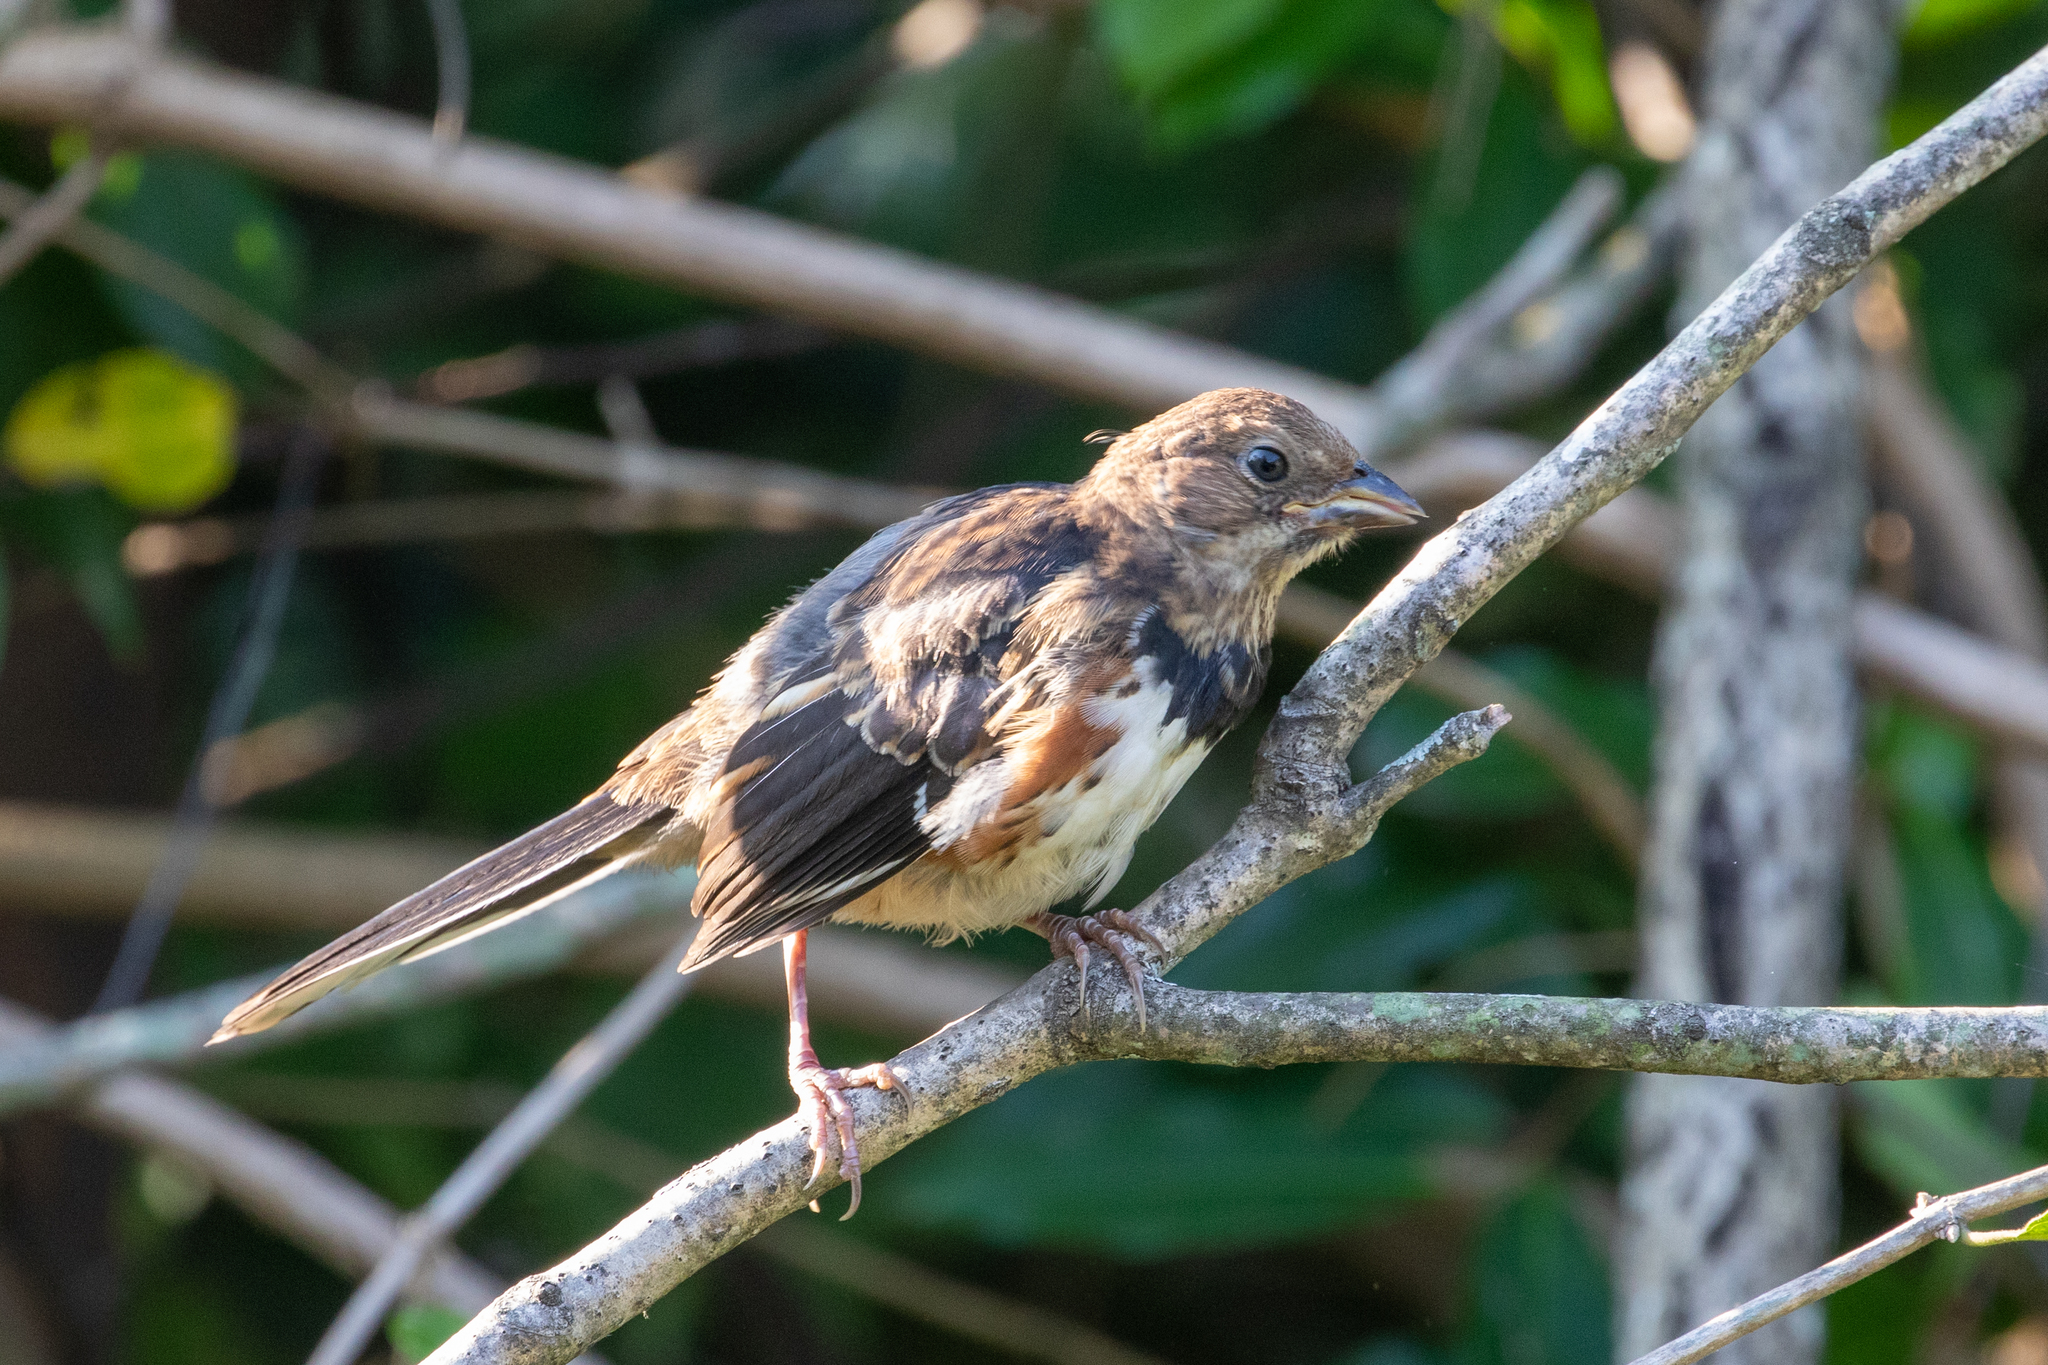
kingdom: Animalia
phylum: Chordata
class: Aves
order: Passeriformes
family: Passerellidae
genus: Pipilo
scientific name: Pipilo erythrophthalmus
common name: Eastern towhee
